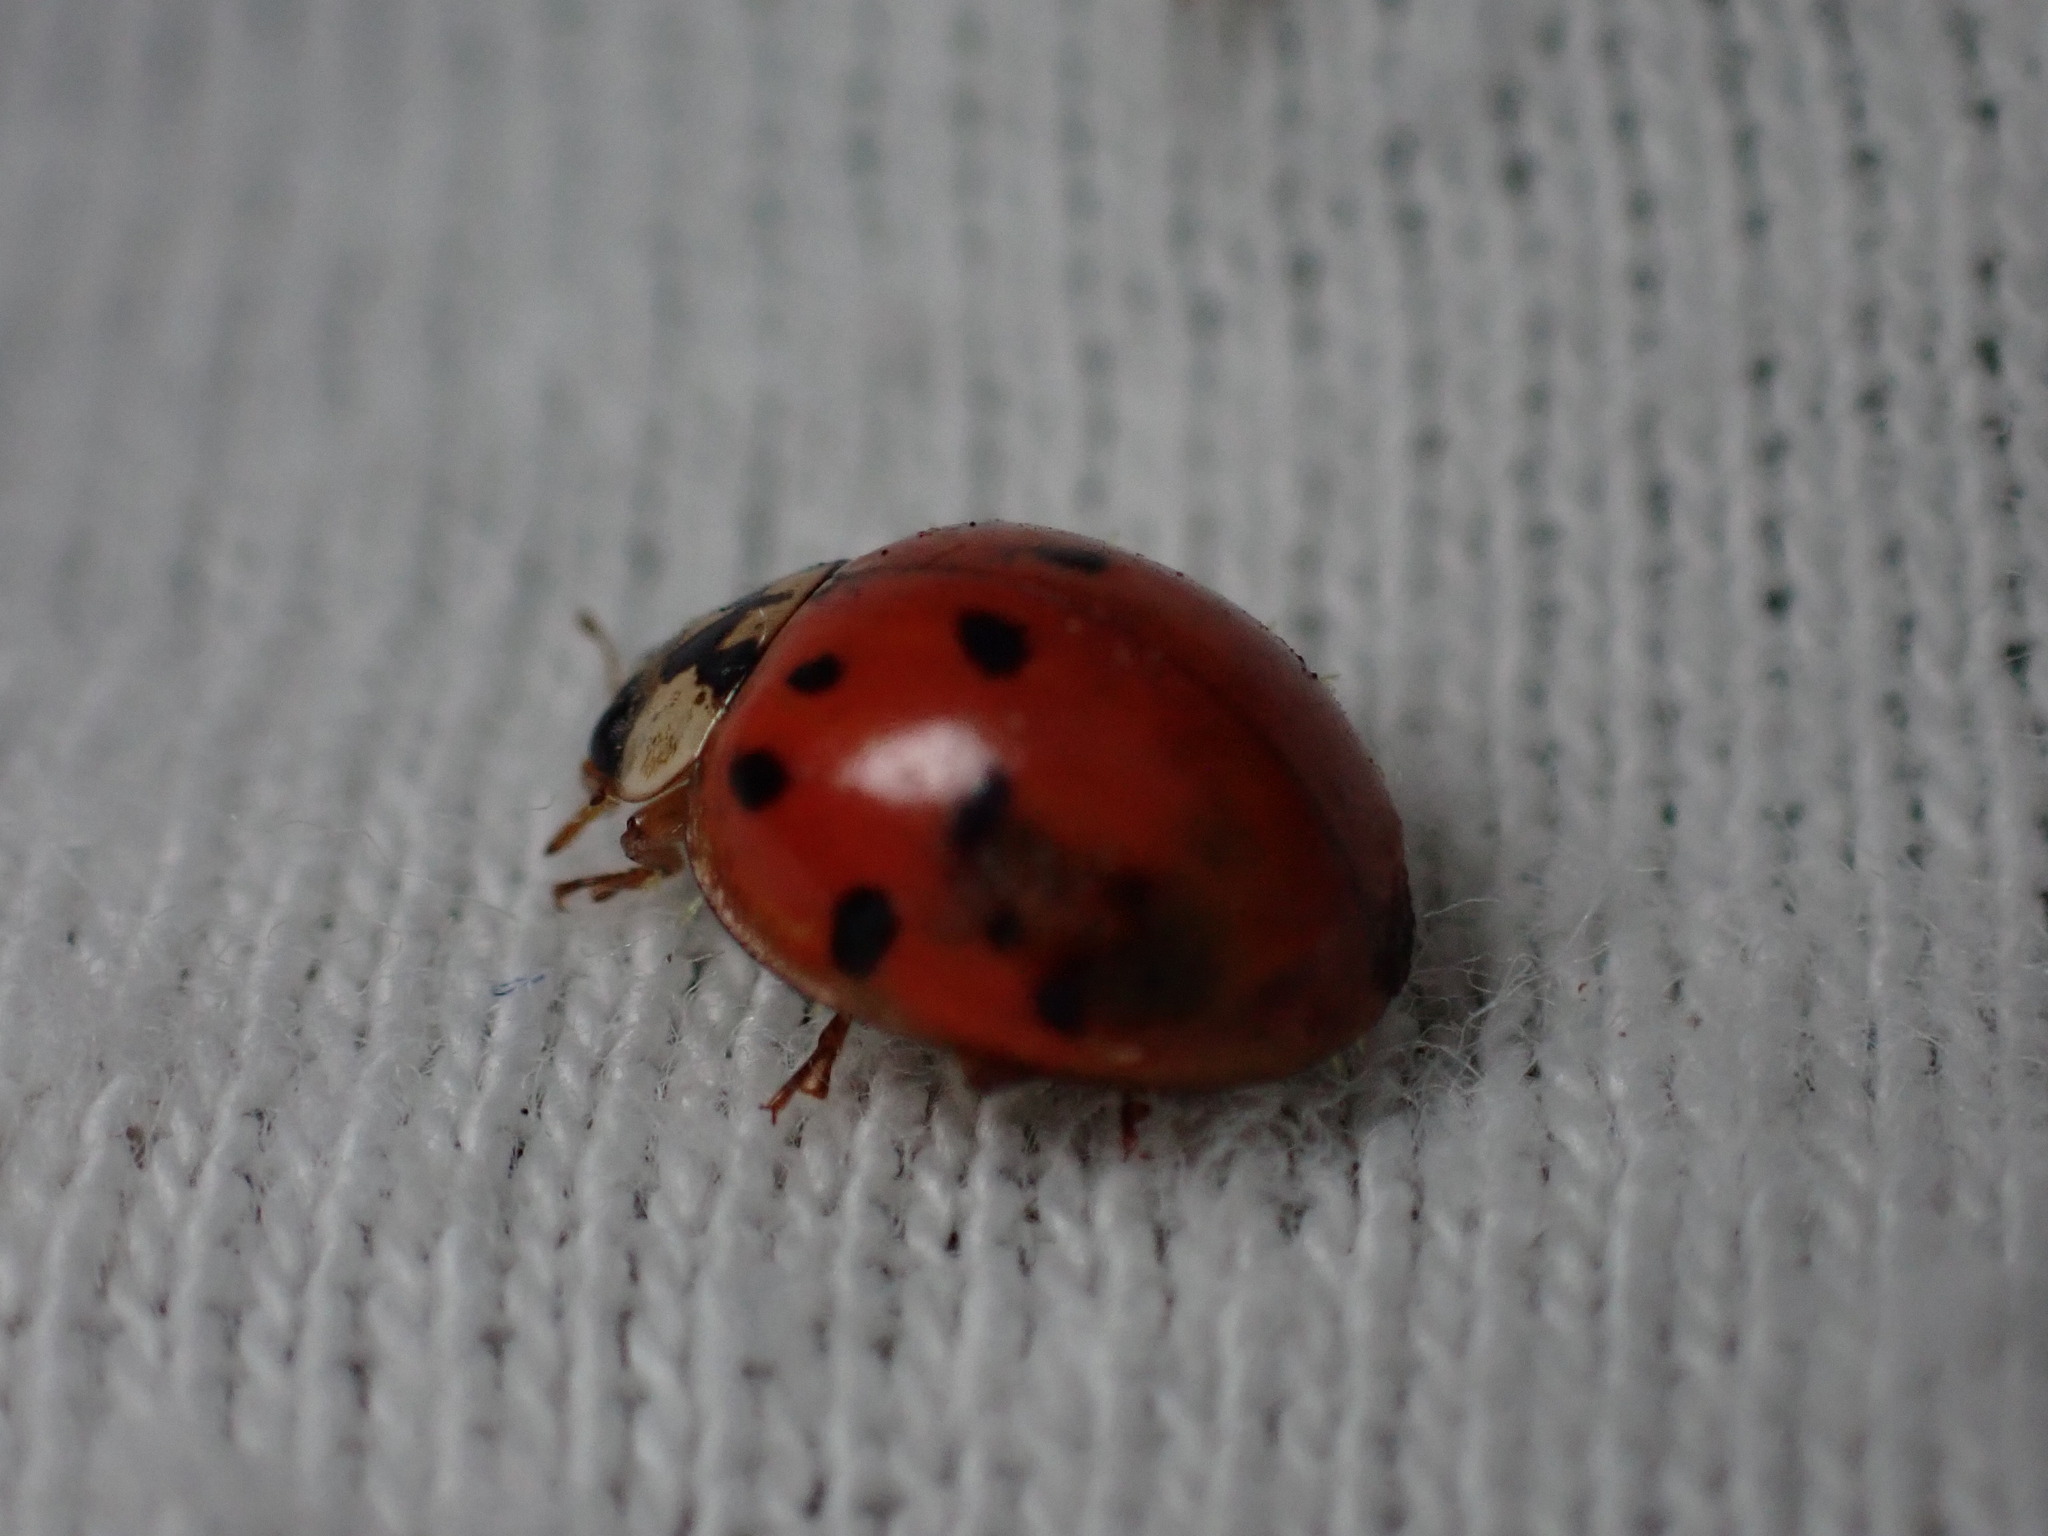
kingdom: Animalia
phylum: Arthropoda
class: Insecta
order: Coleoptera
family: Coccinellidae
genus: Harmonia
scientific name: Harmonia axyridis
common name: Harlequin ladybird
